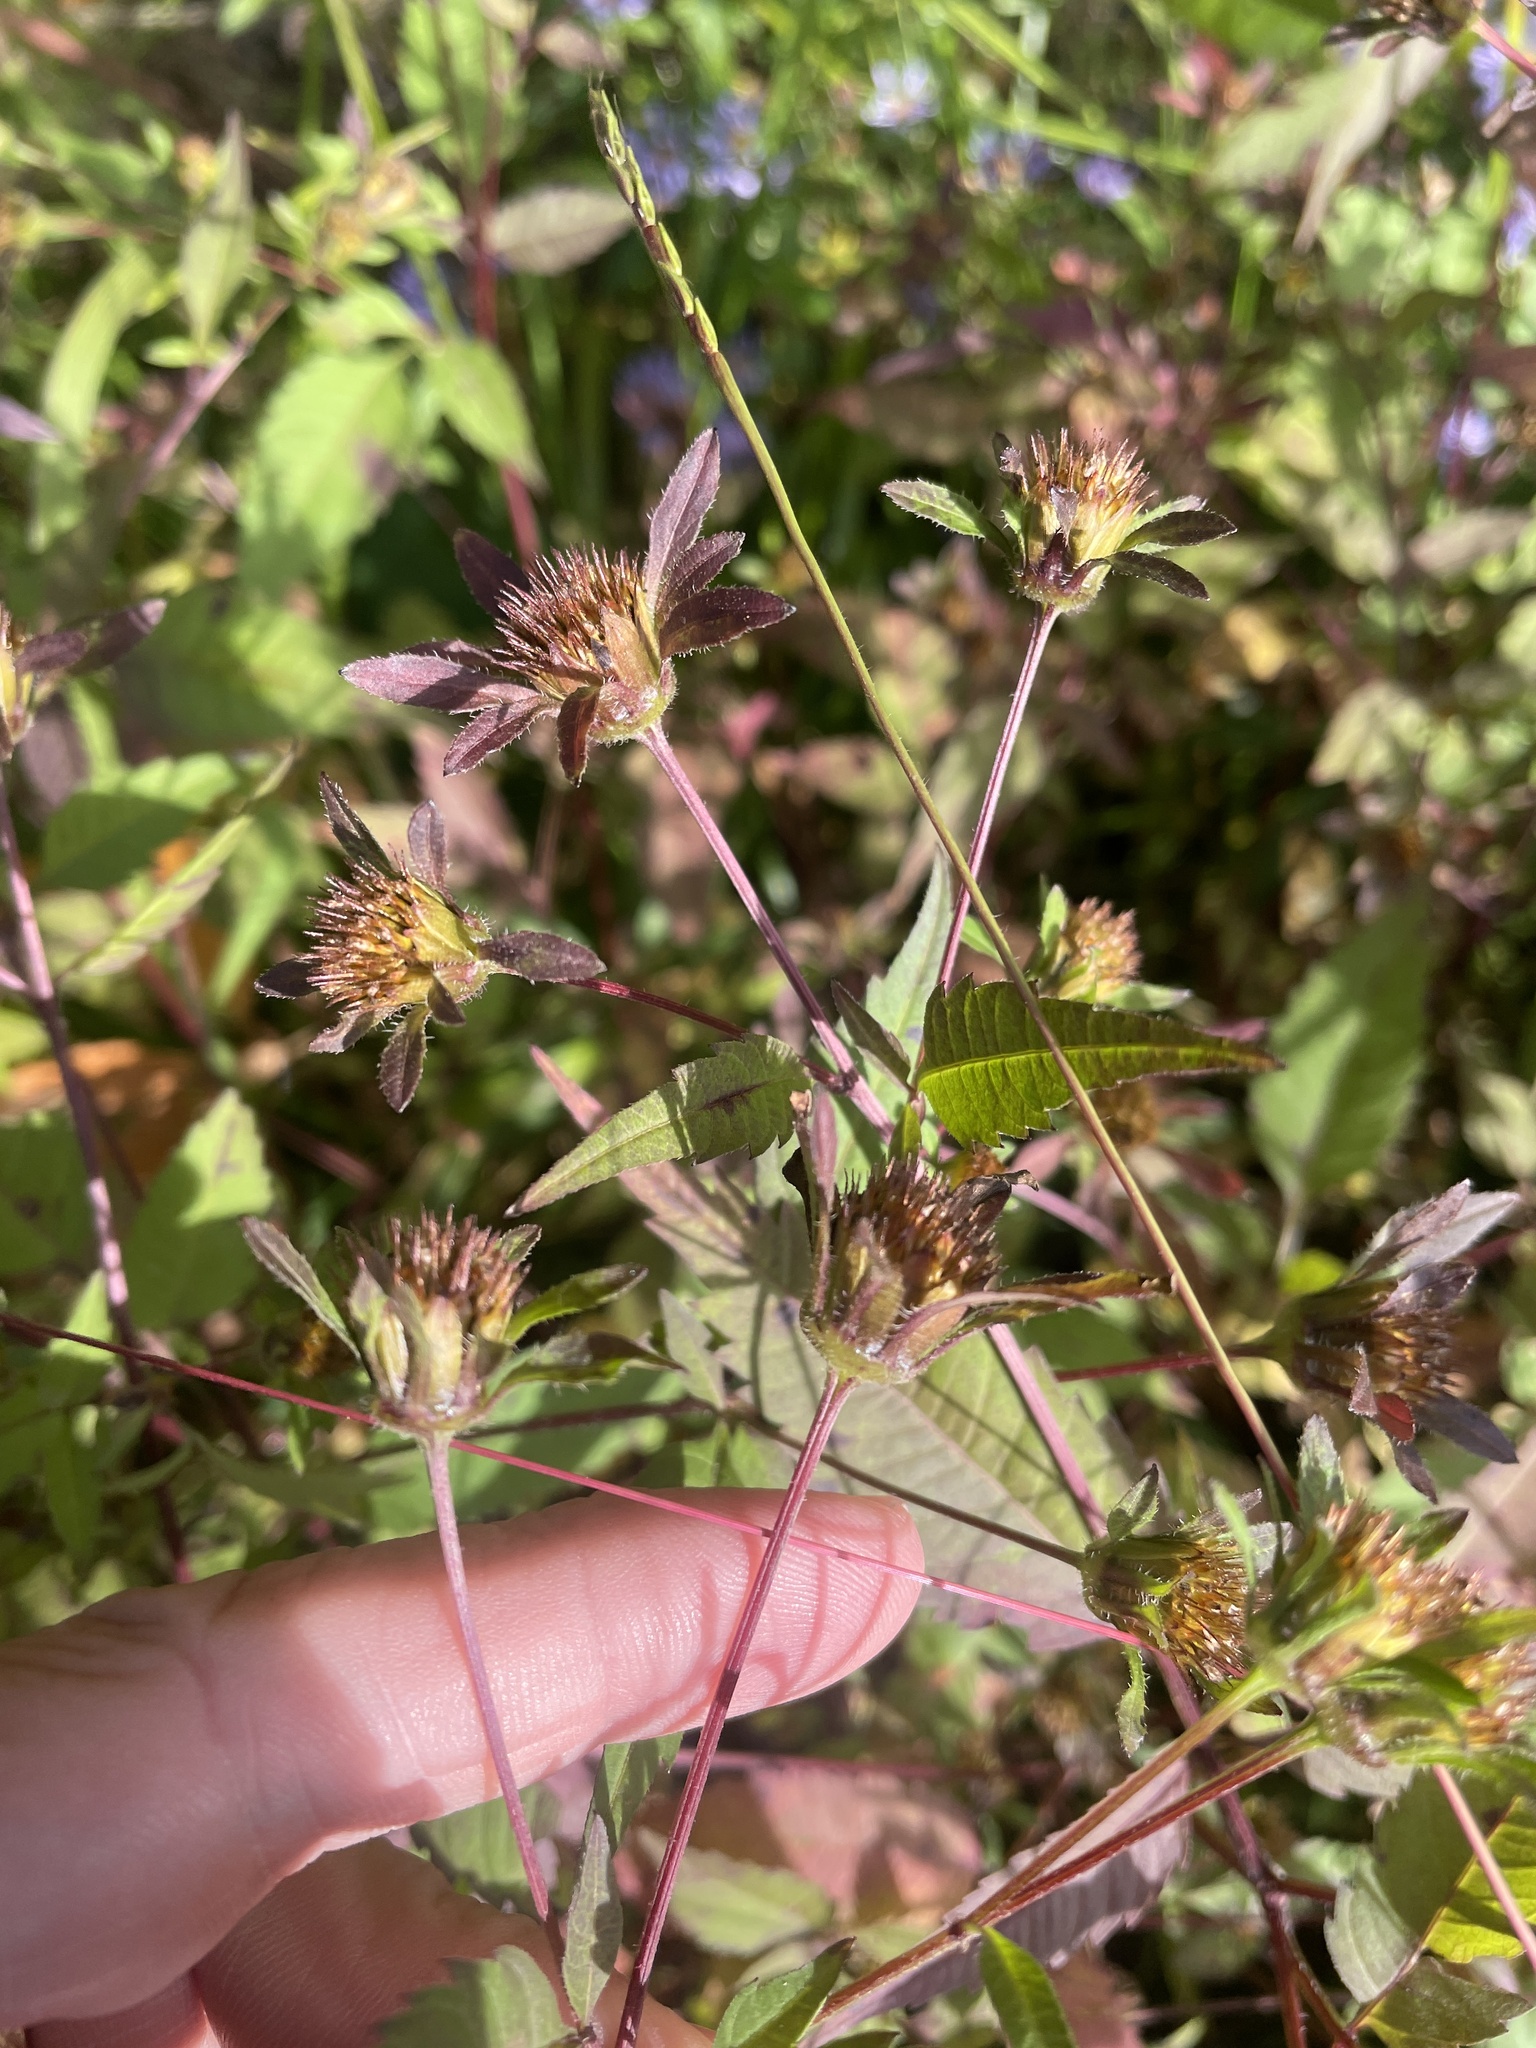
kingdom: Plantae
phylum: Tracheophyta
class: Magnoliopsida
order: Asterales
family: Asteraceae
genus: Bidens
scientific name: Bidens frondosa
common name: Beggarticks
